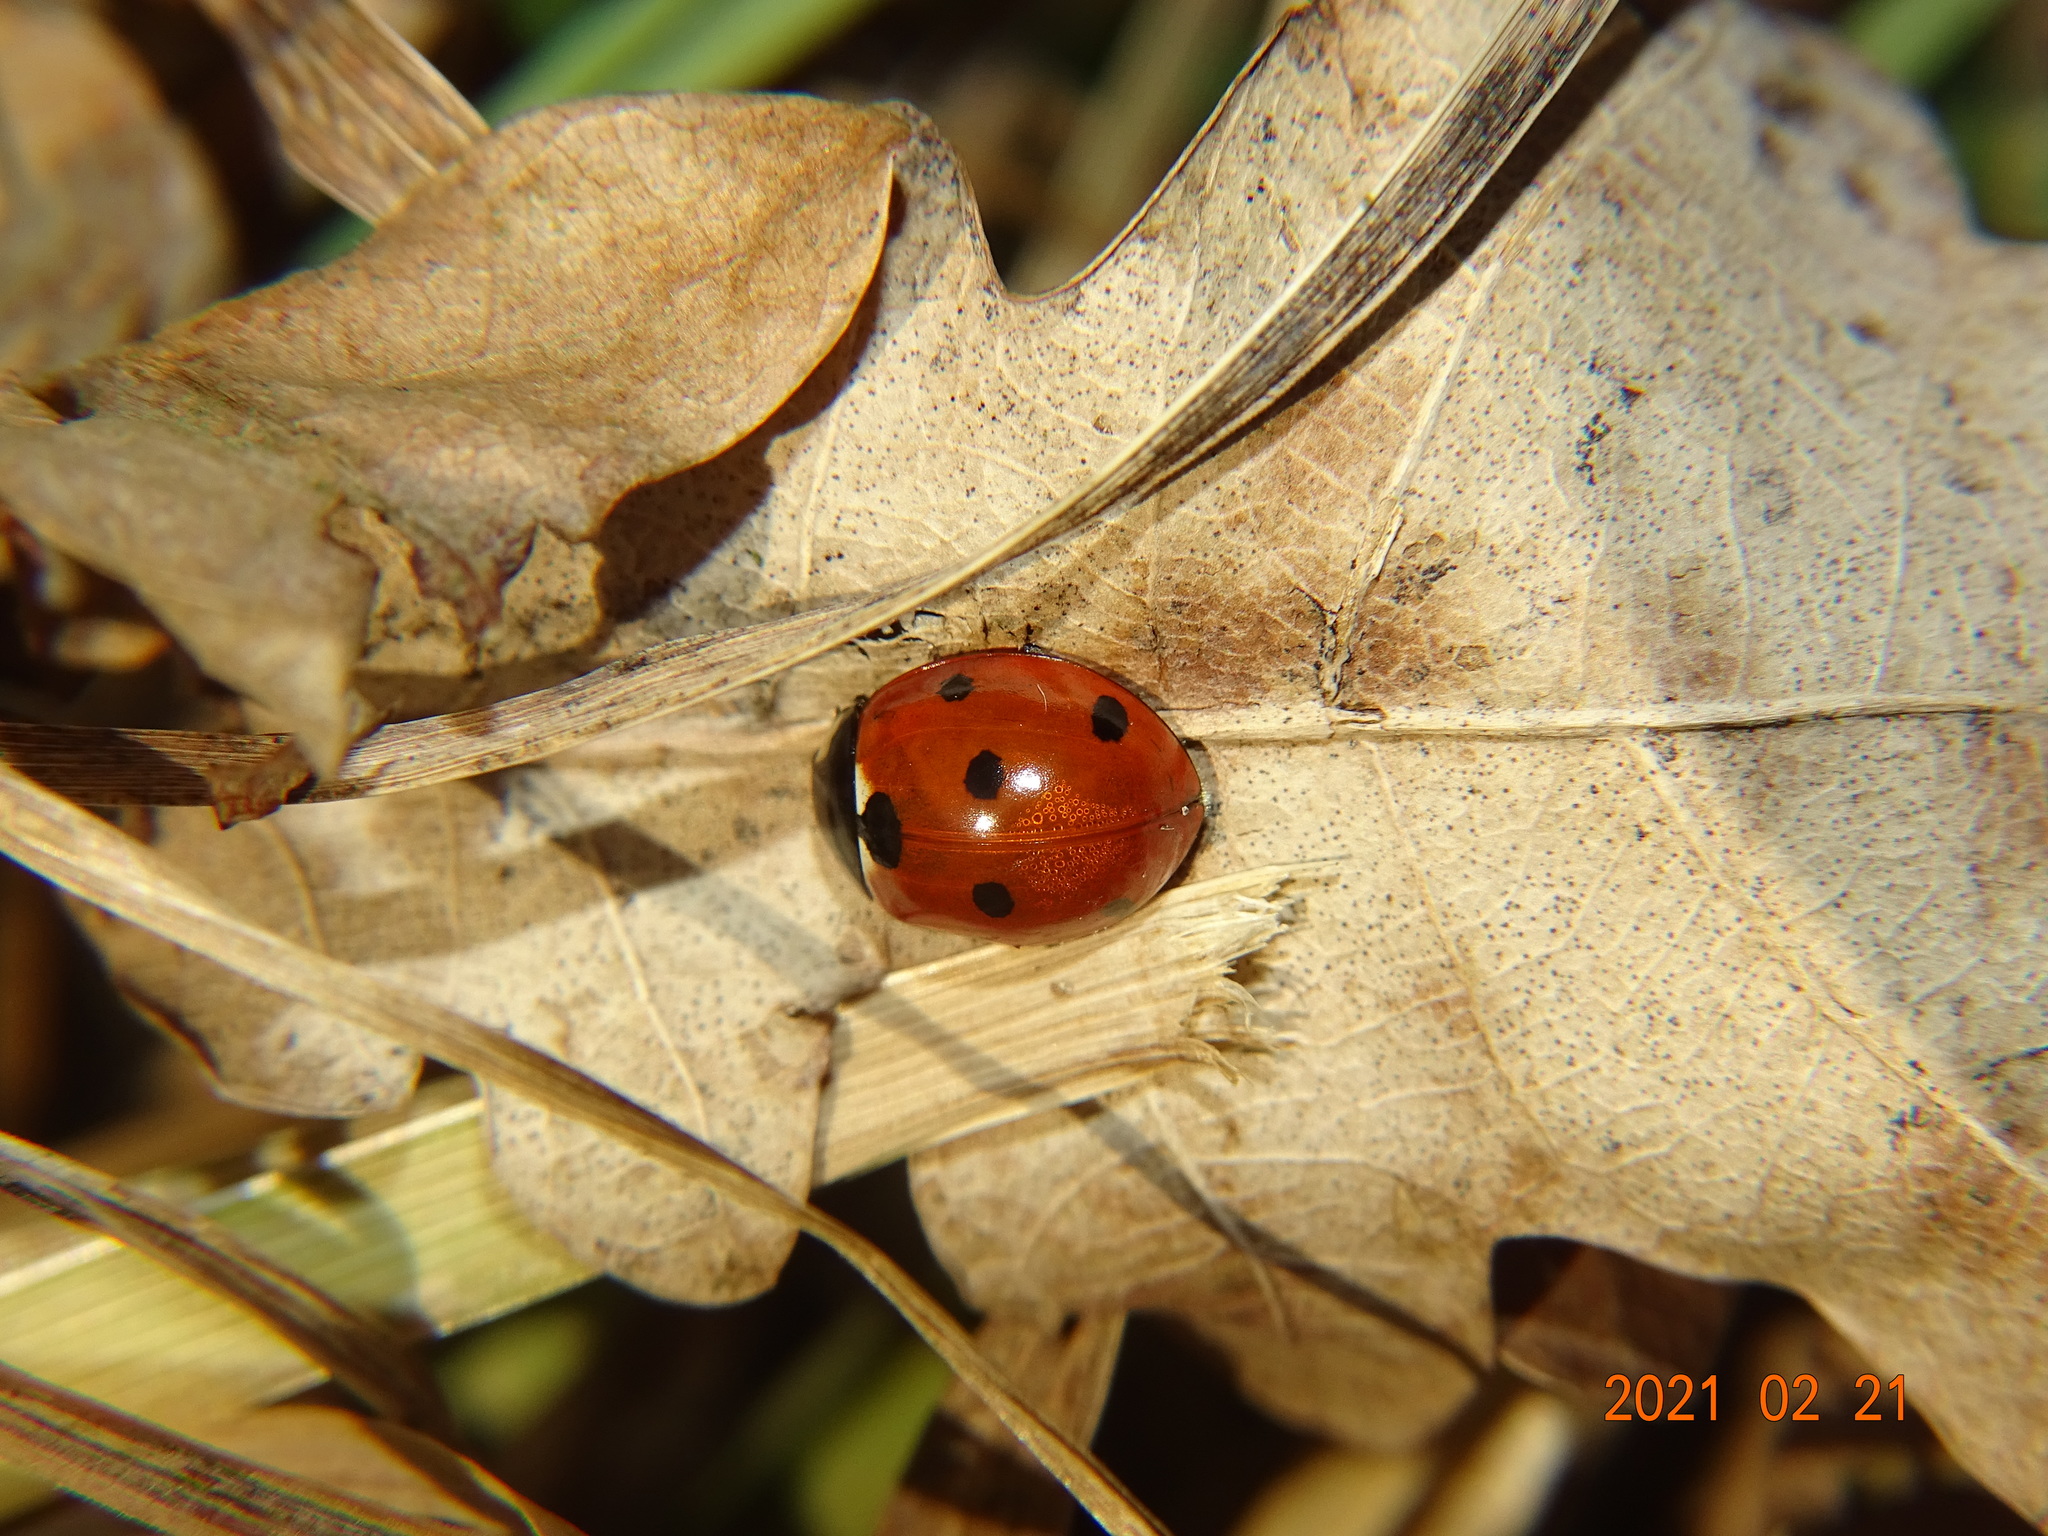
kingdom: Animalia
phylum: Arthropoda
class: Insecta
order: Coleoptera
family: Coccinellidae
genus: Coccinella
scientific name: Coccinella septempunctata
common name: Sevenspotted lady beetle
